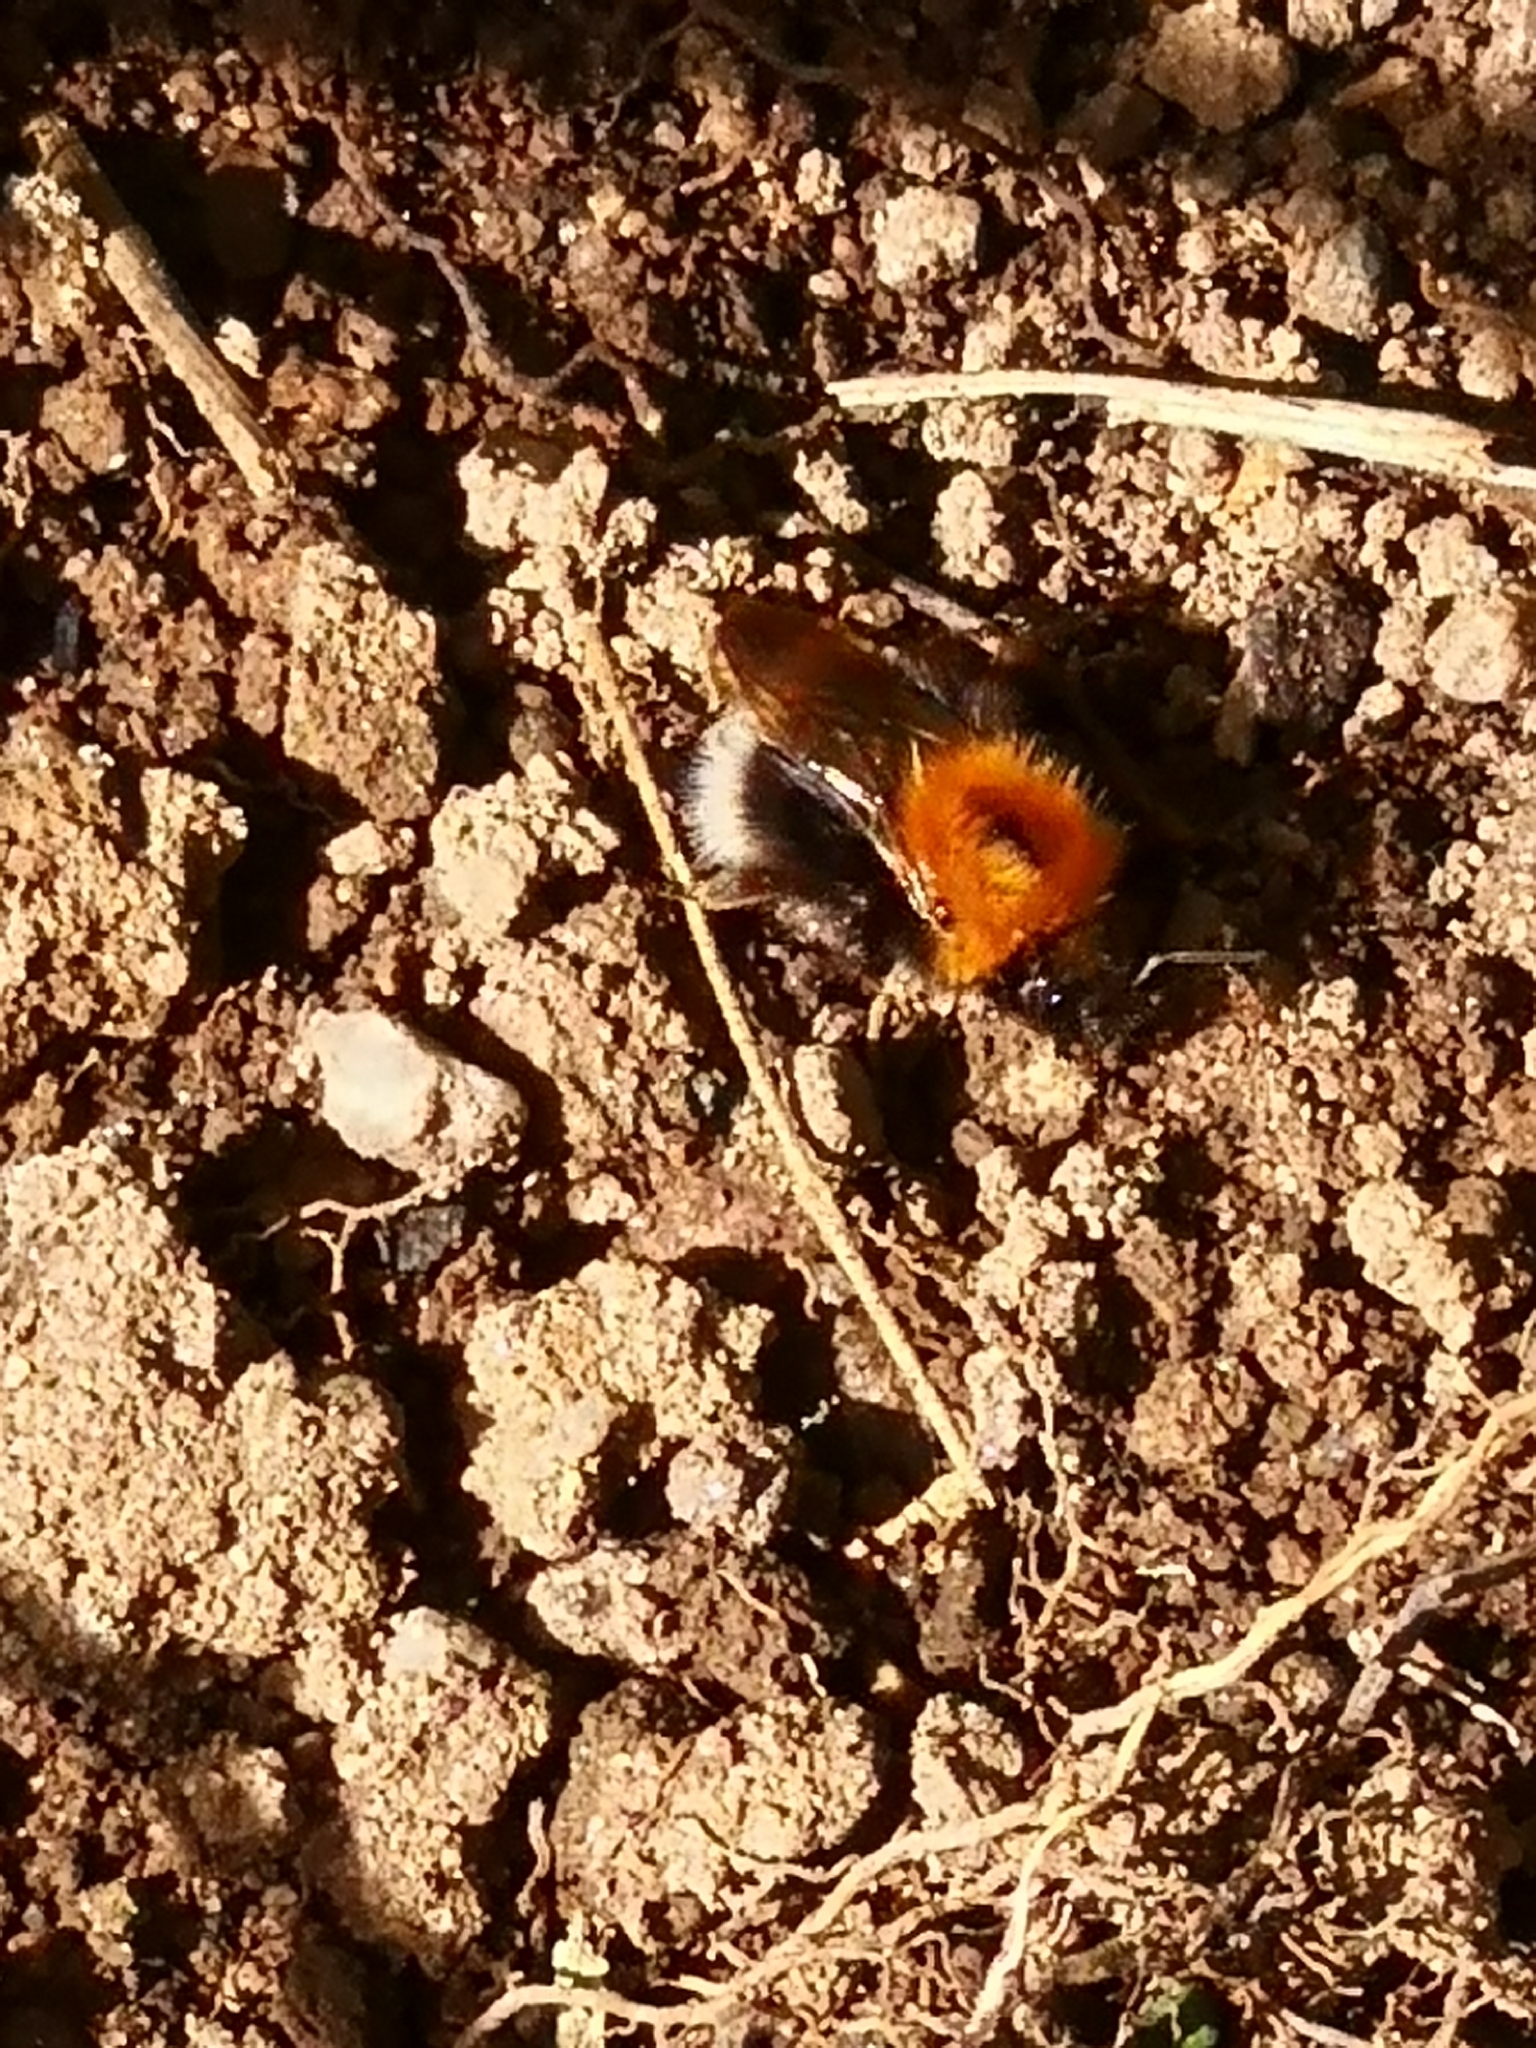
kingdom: Animalia
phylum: Arthropoda
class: Insecta
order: Hymenoptera
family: Apidae
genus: Bombus
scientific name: Bombus hypnorum
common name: New garden bumblebee
